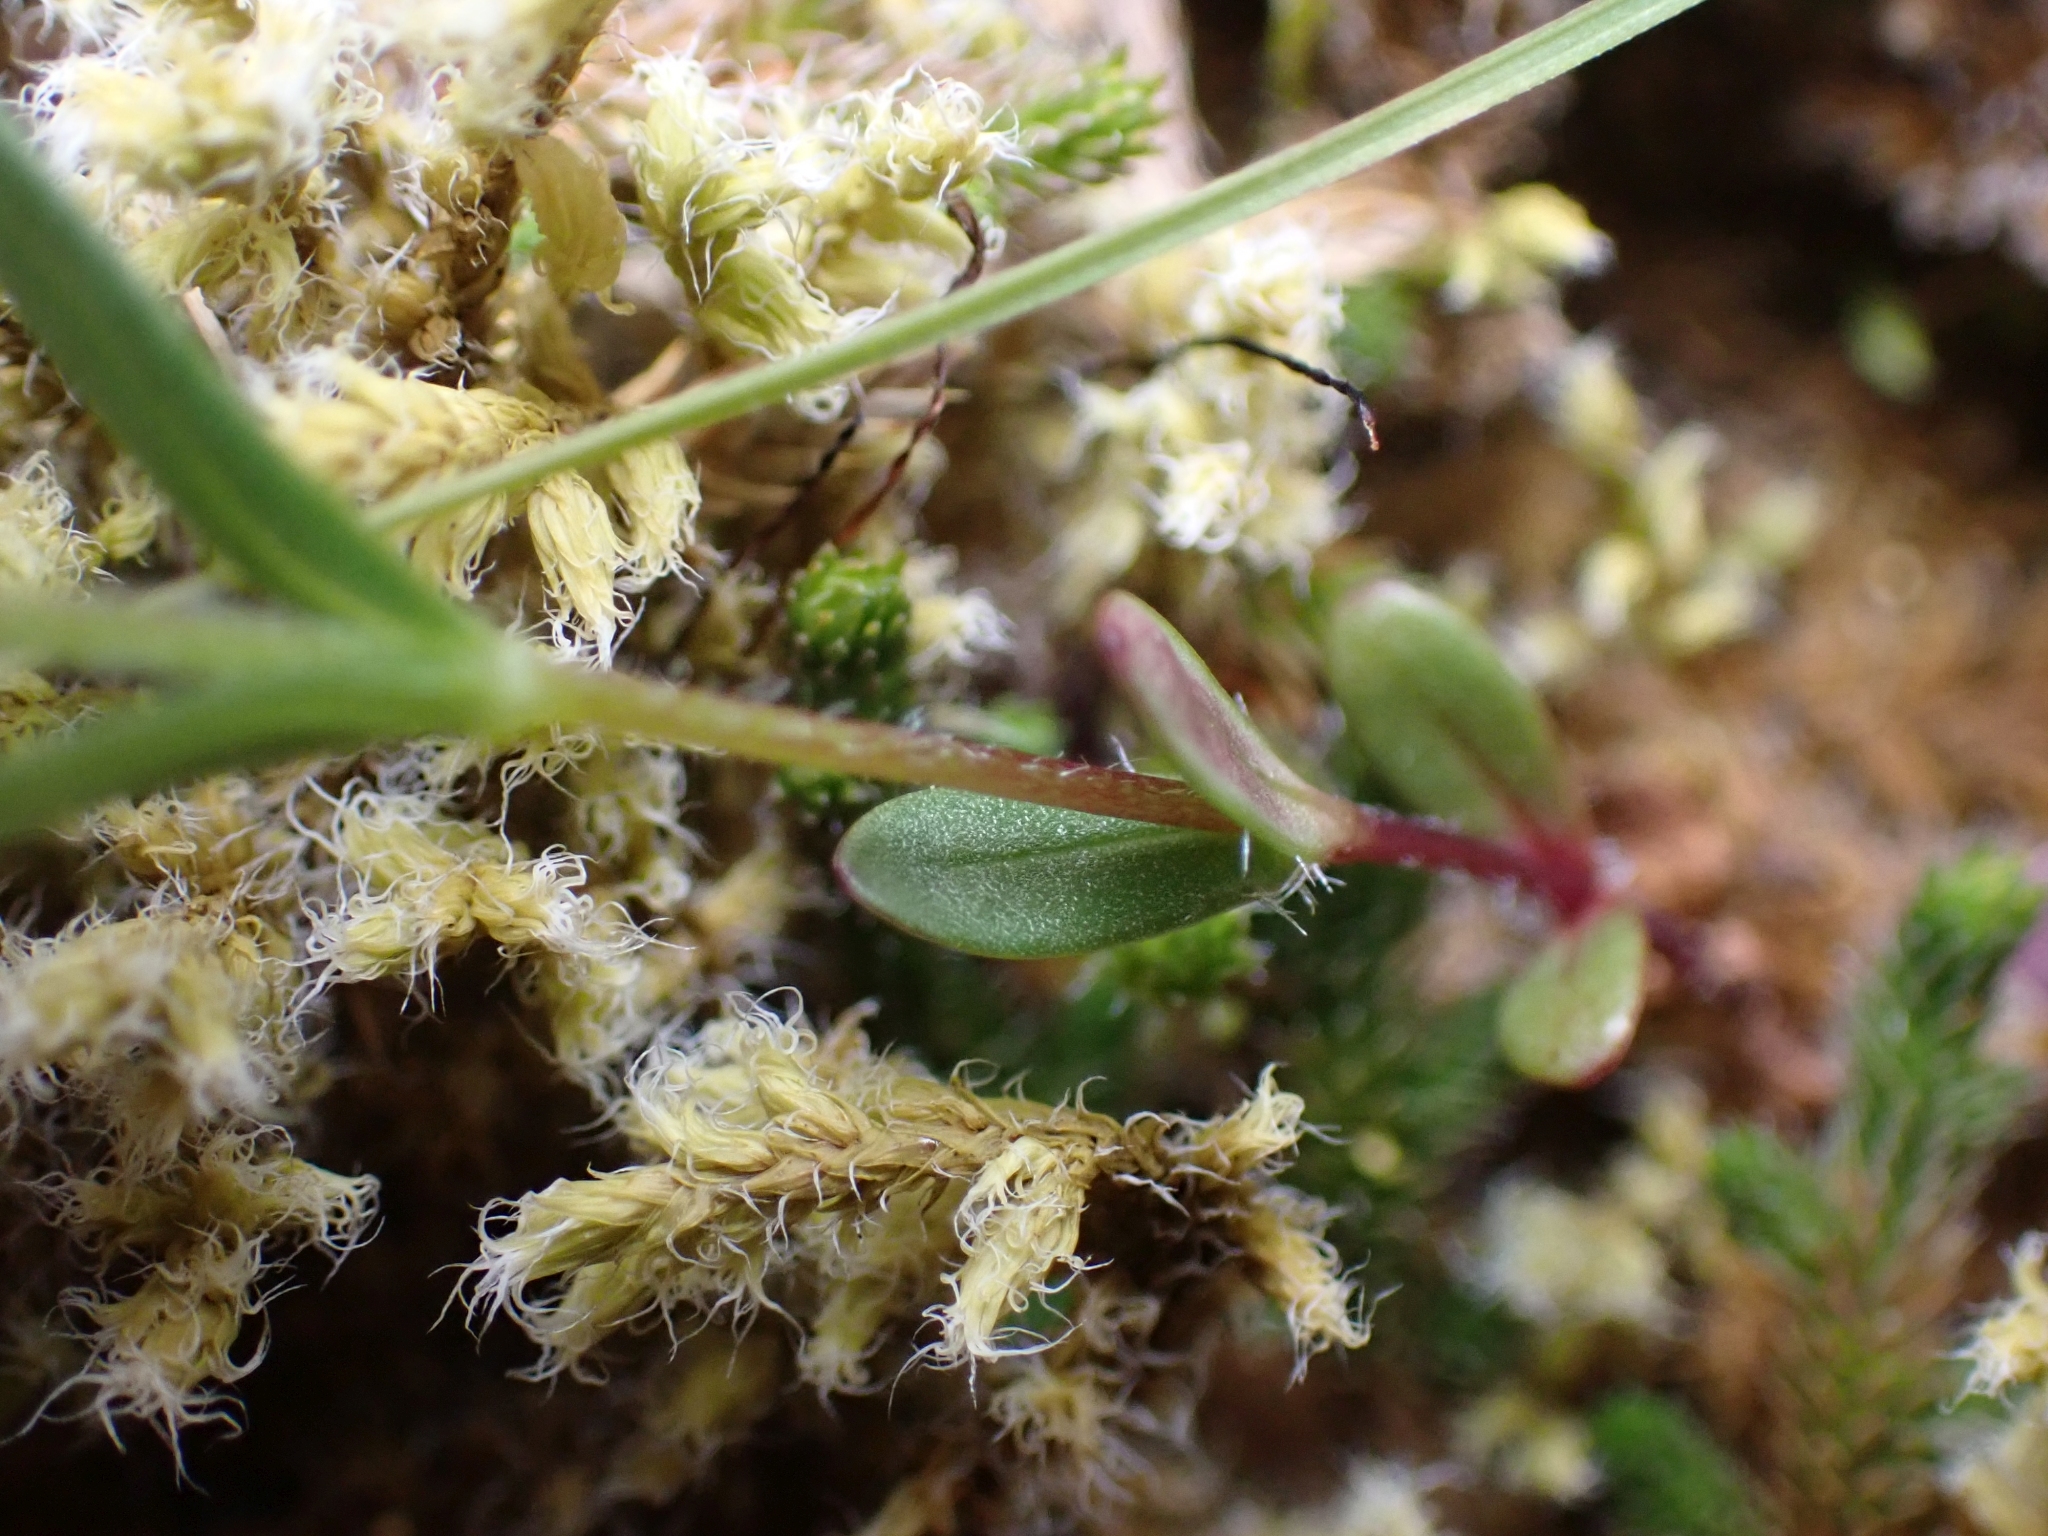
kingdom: Plantae
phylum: Tracheophyta
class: Magnoliopsida
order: Ericales
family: Polemoniaceae
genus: Phlox
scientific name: Phlox gracilis
